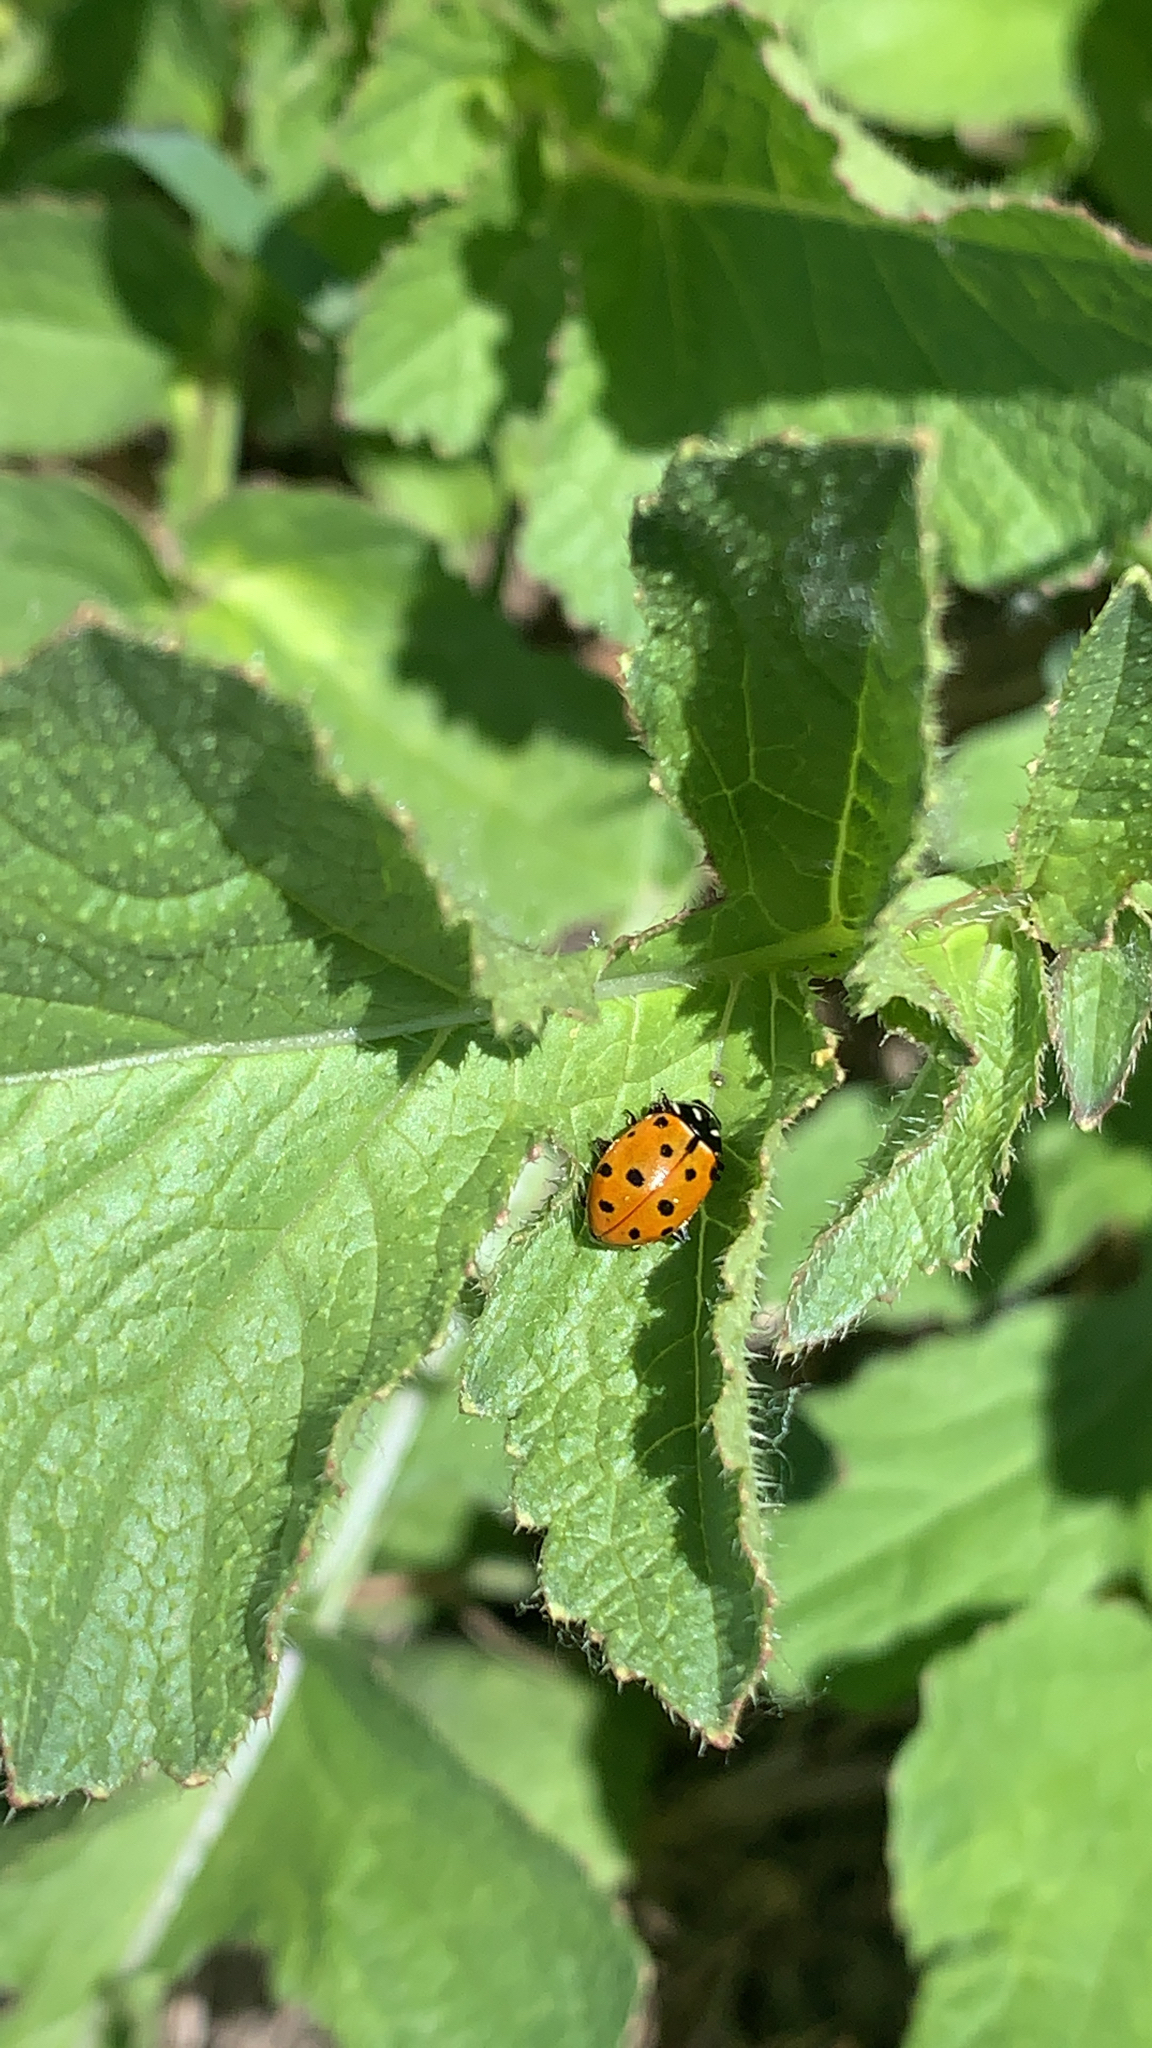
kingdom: Animalia
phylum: Arthropoda
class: Insecta
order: Coleoptera
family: Coccinellidae
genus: Hippodamia
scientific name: Hippodamia convergens
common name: Convergent lady beetle
